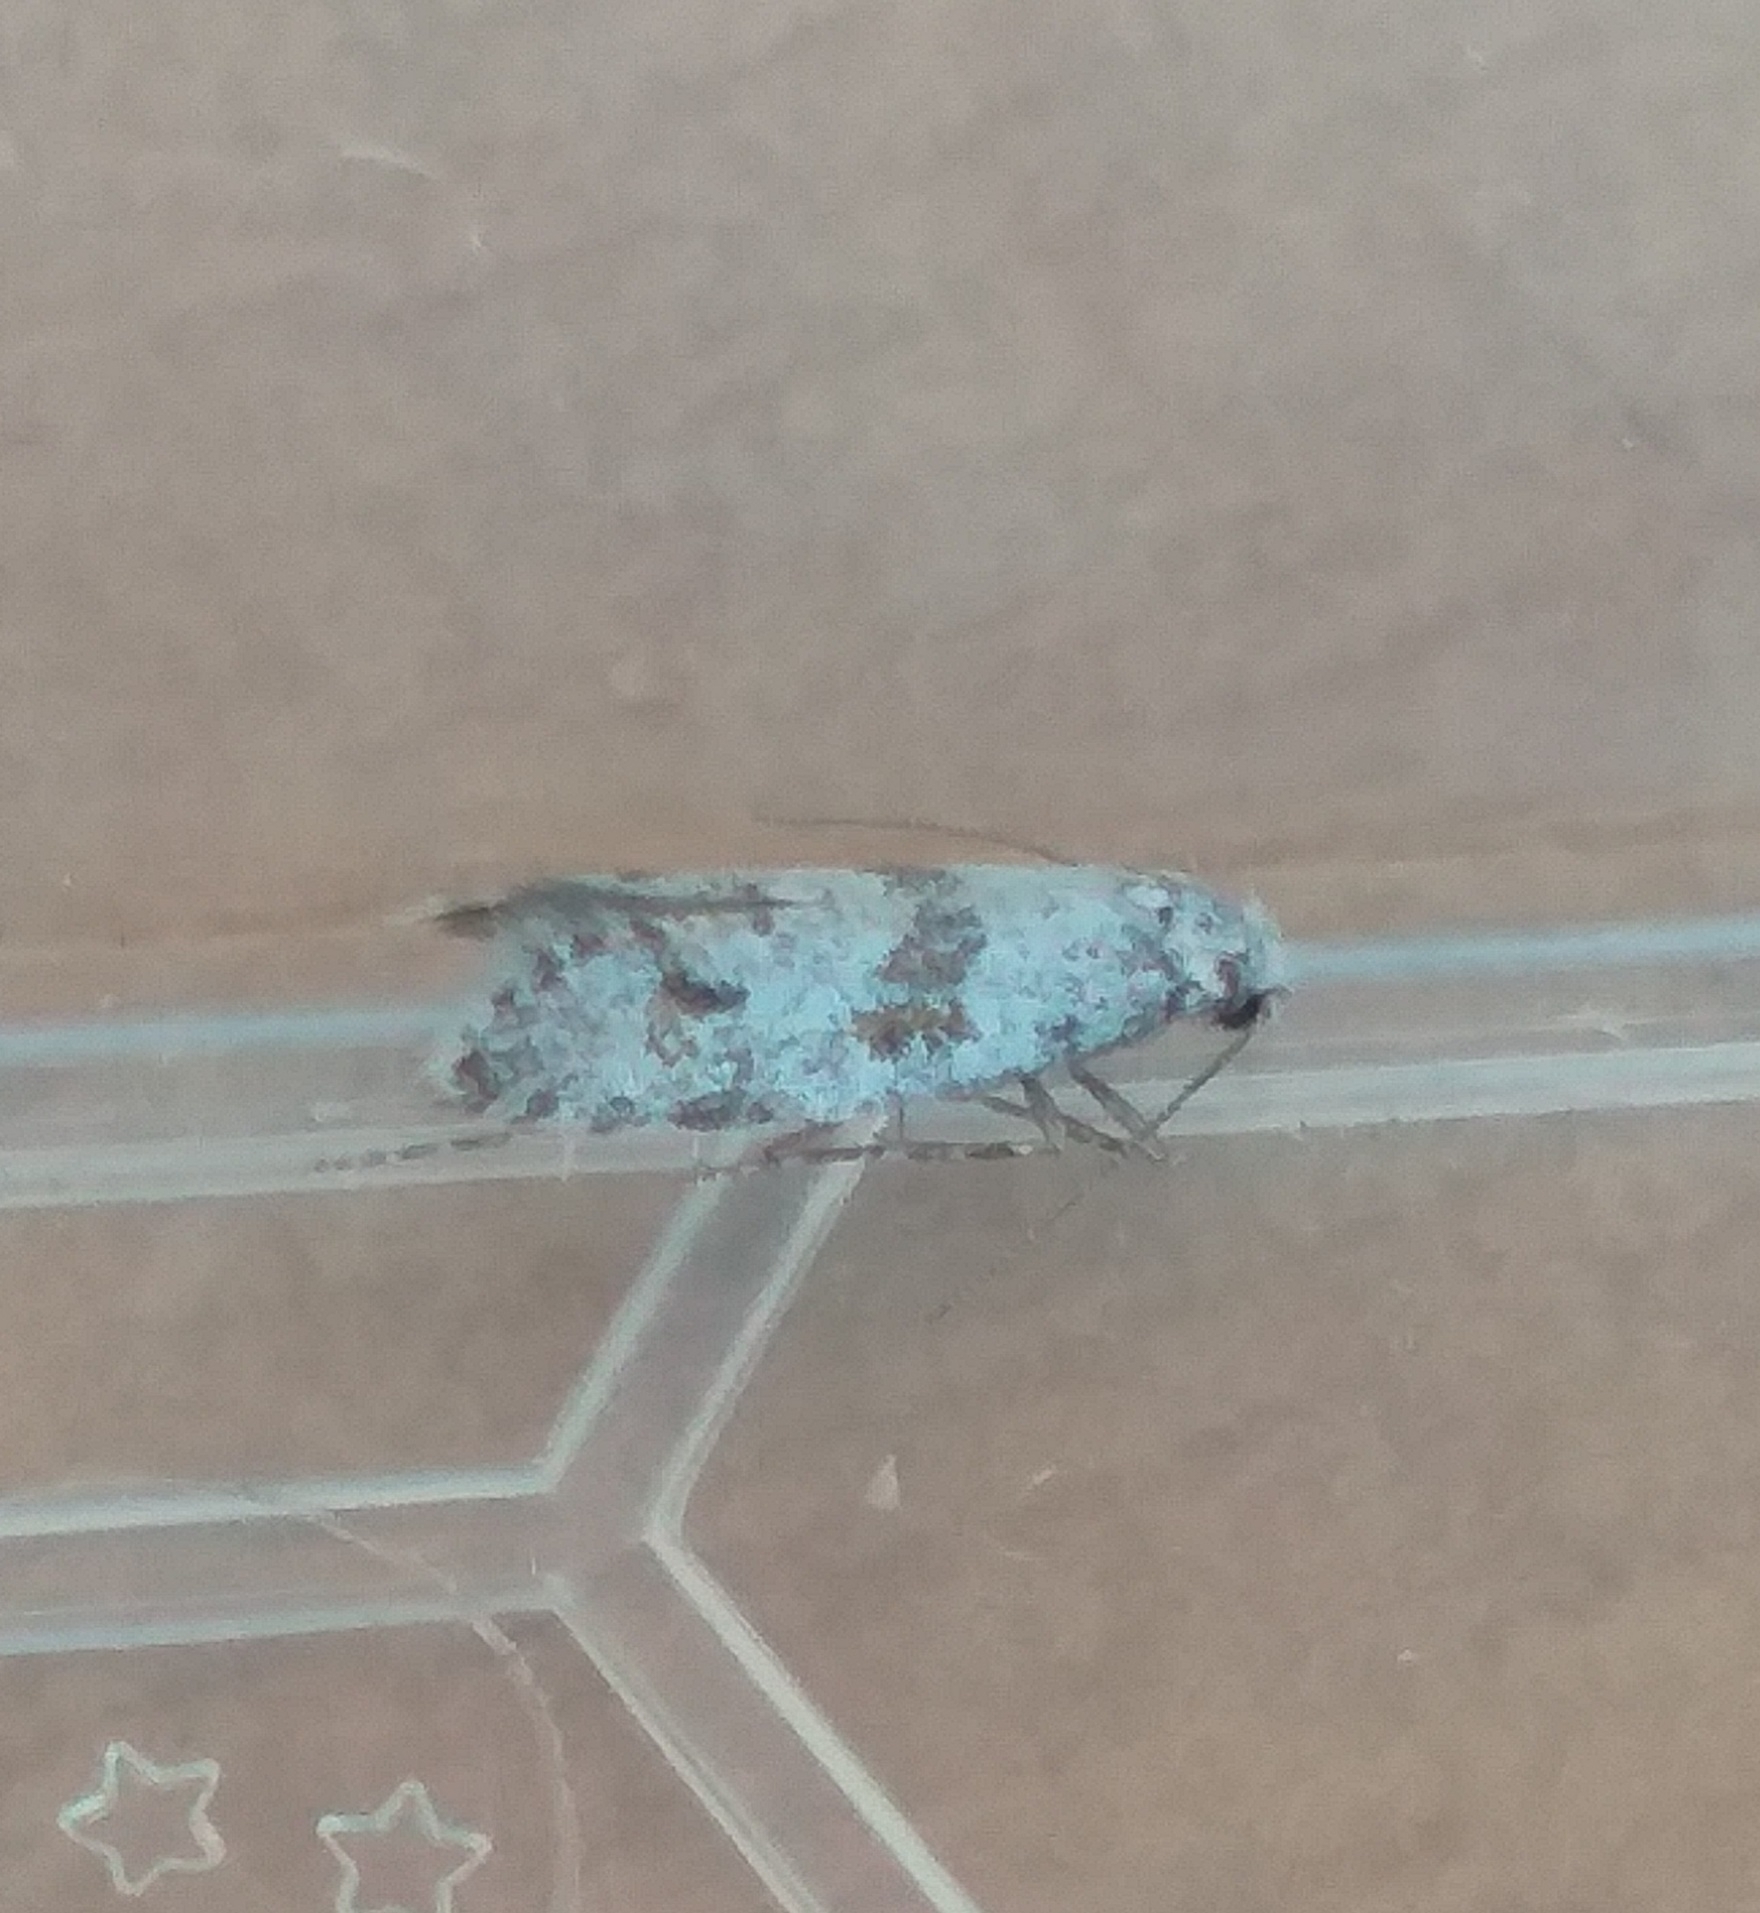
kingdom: Animalia
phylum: Arthropoda
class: Insecta
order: Lepidoptera
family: Yponomeutidae
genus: Scythropia
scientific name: Scythropia crataegella
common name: Hawthorn moth
